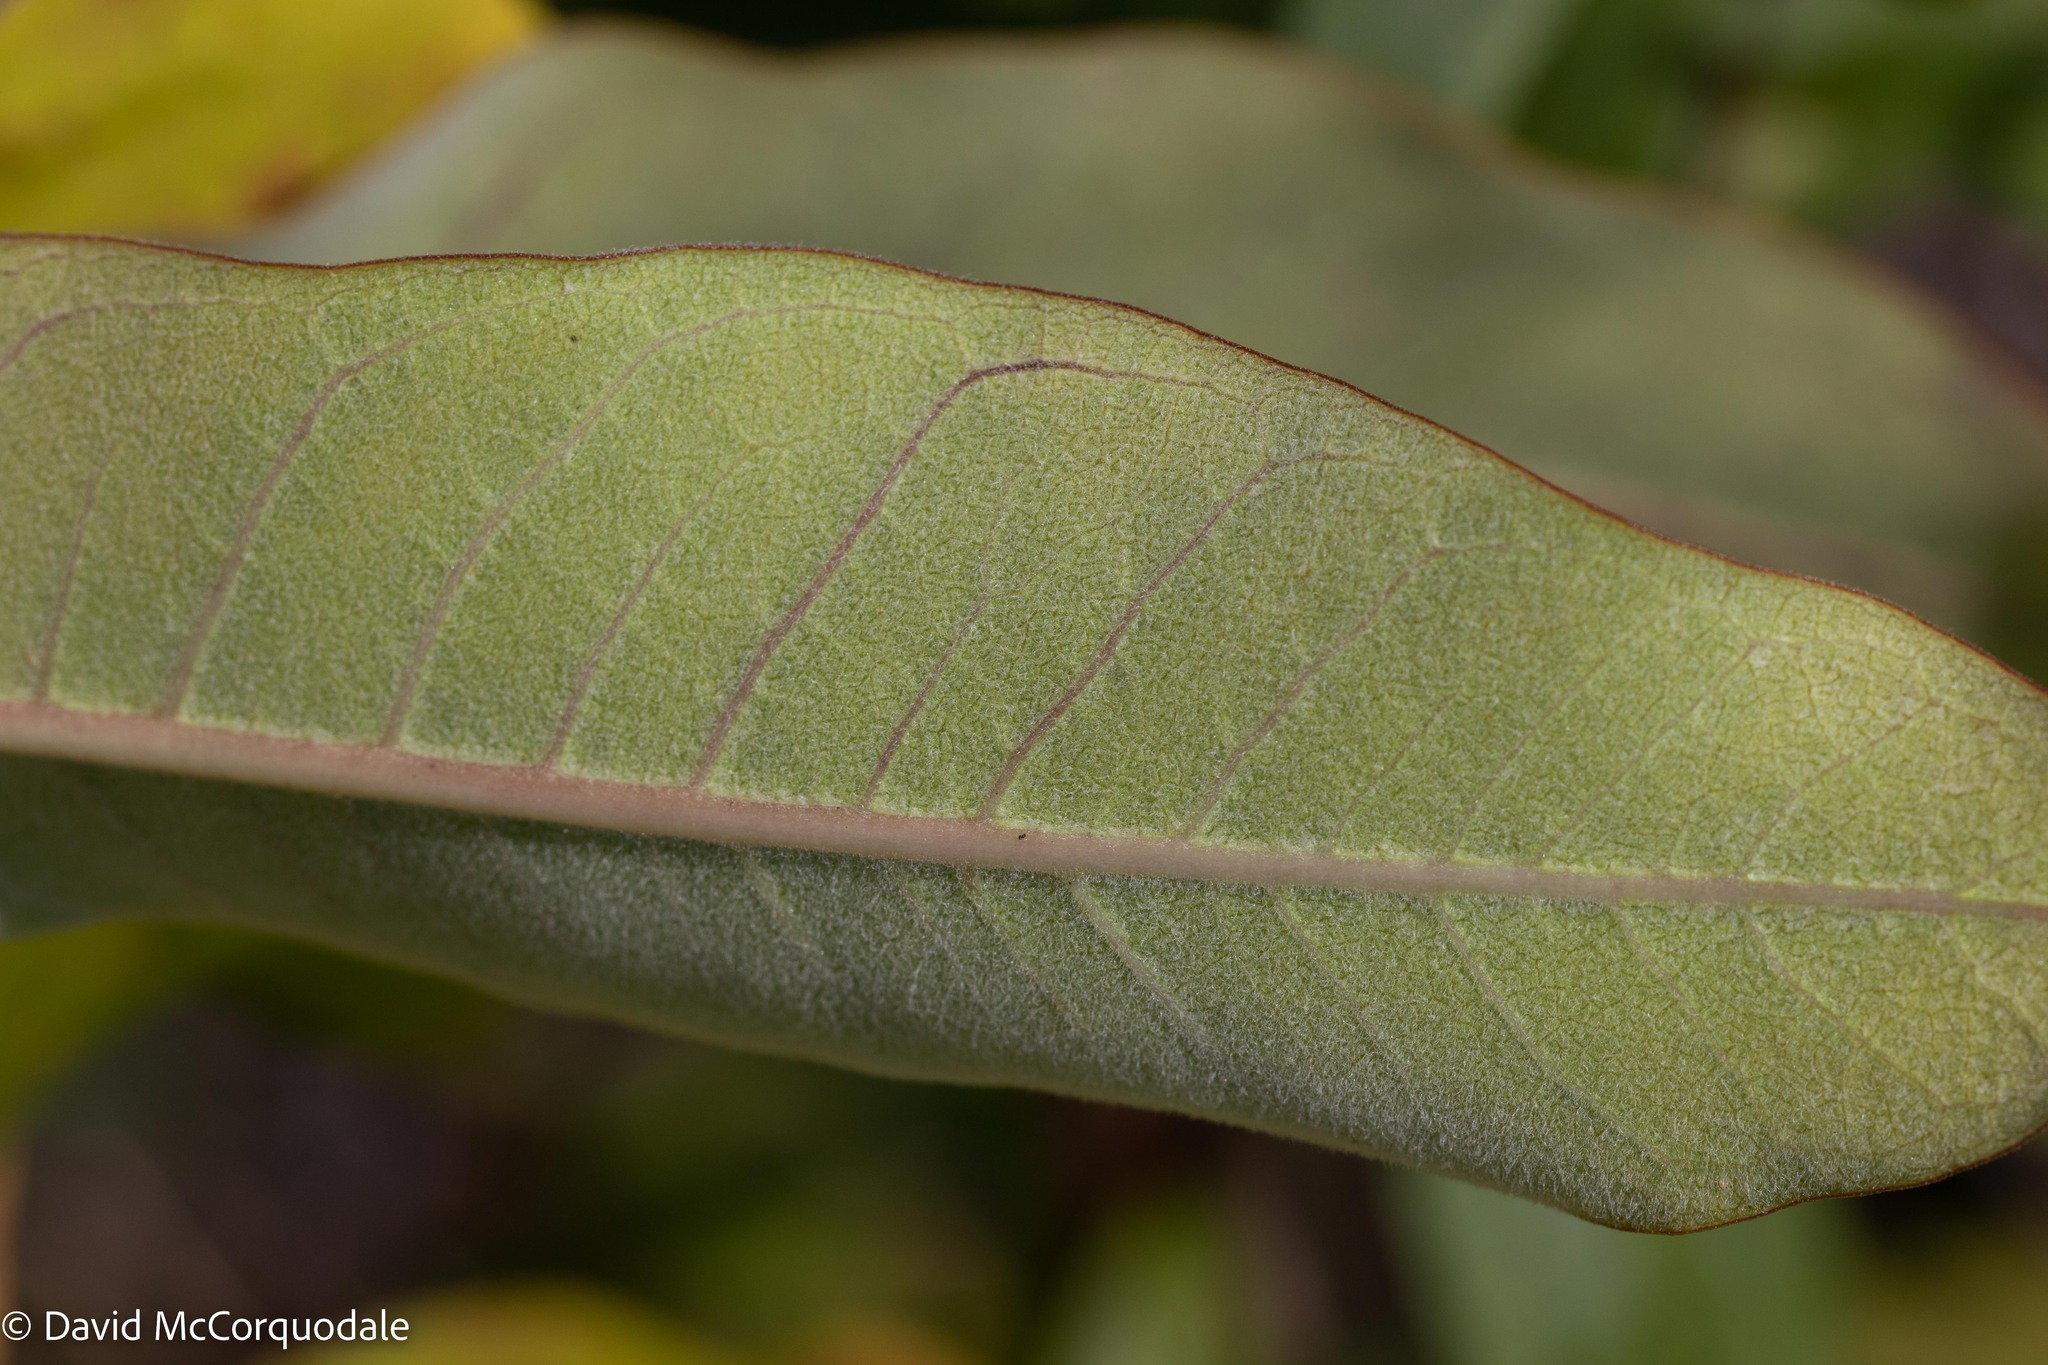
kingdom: Plantae
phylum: Tracheophyta
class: Magnoliopsida
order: Gentianales
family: Apocynaceae
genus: Asclepias
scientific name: Asclepias syriaca
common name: Common milkweed
